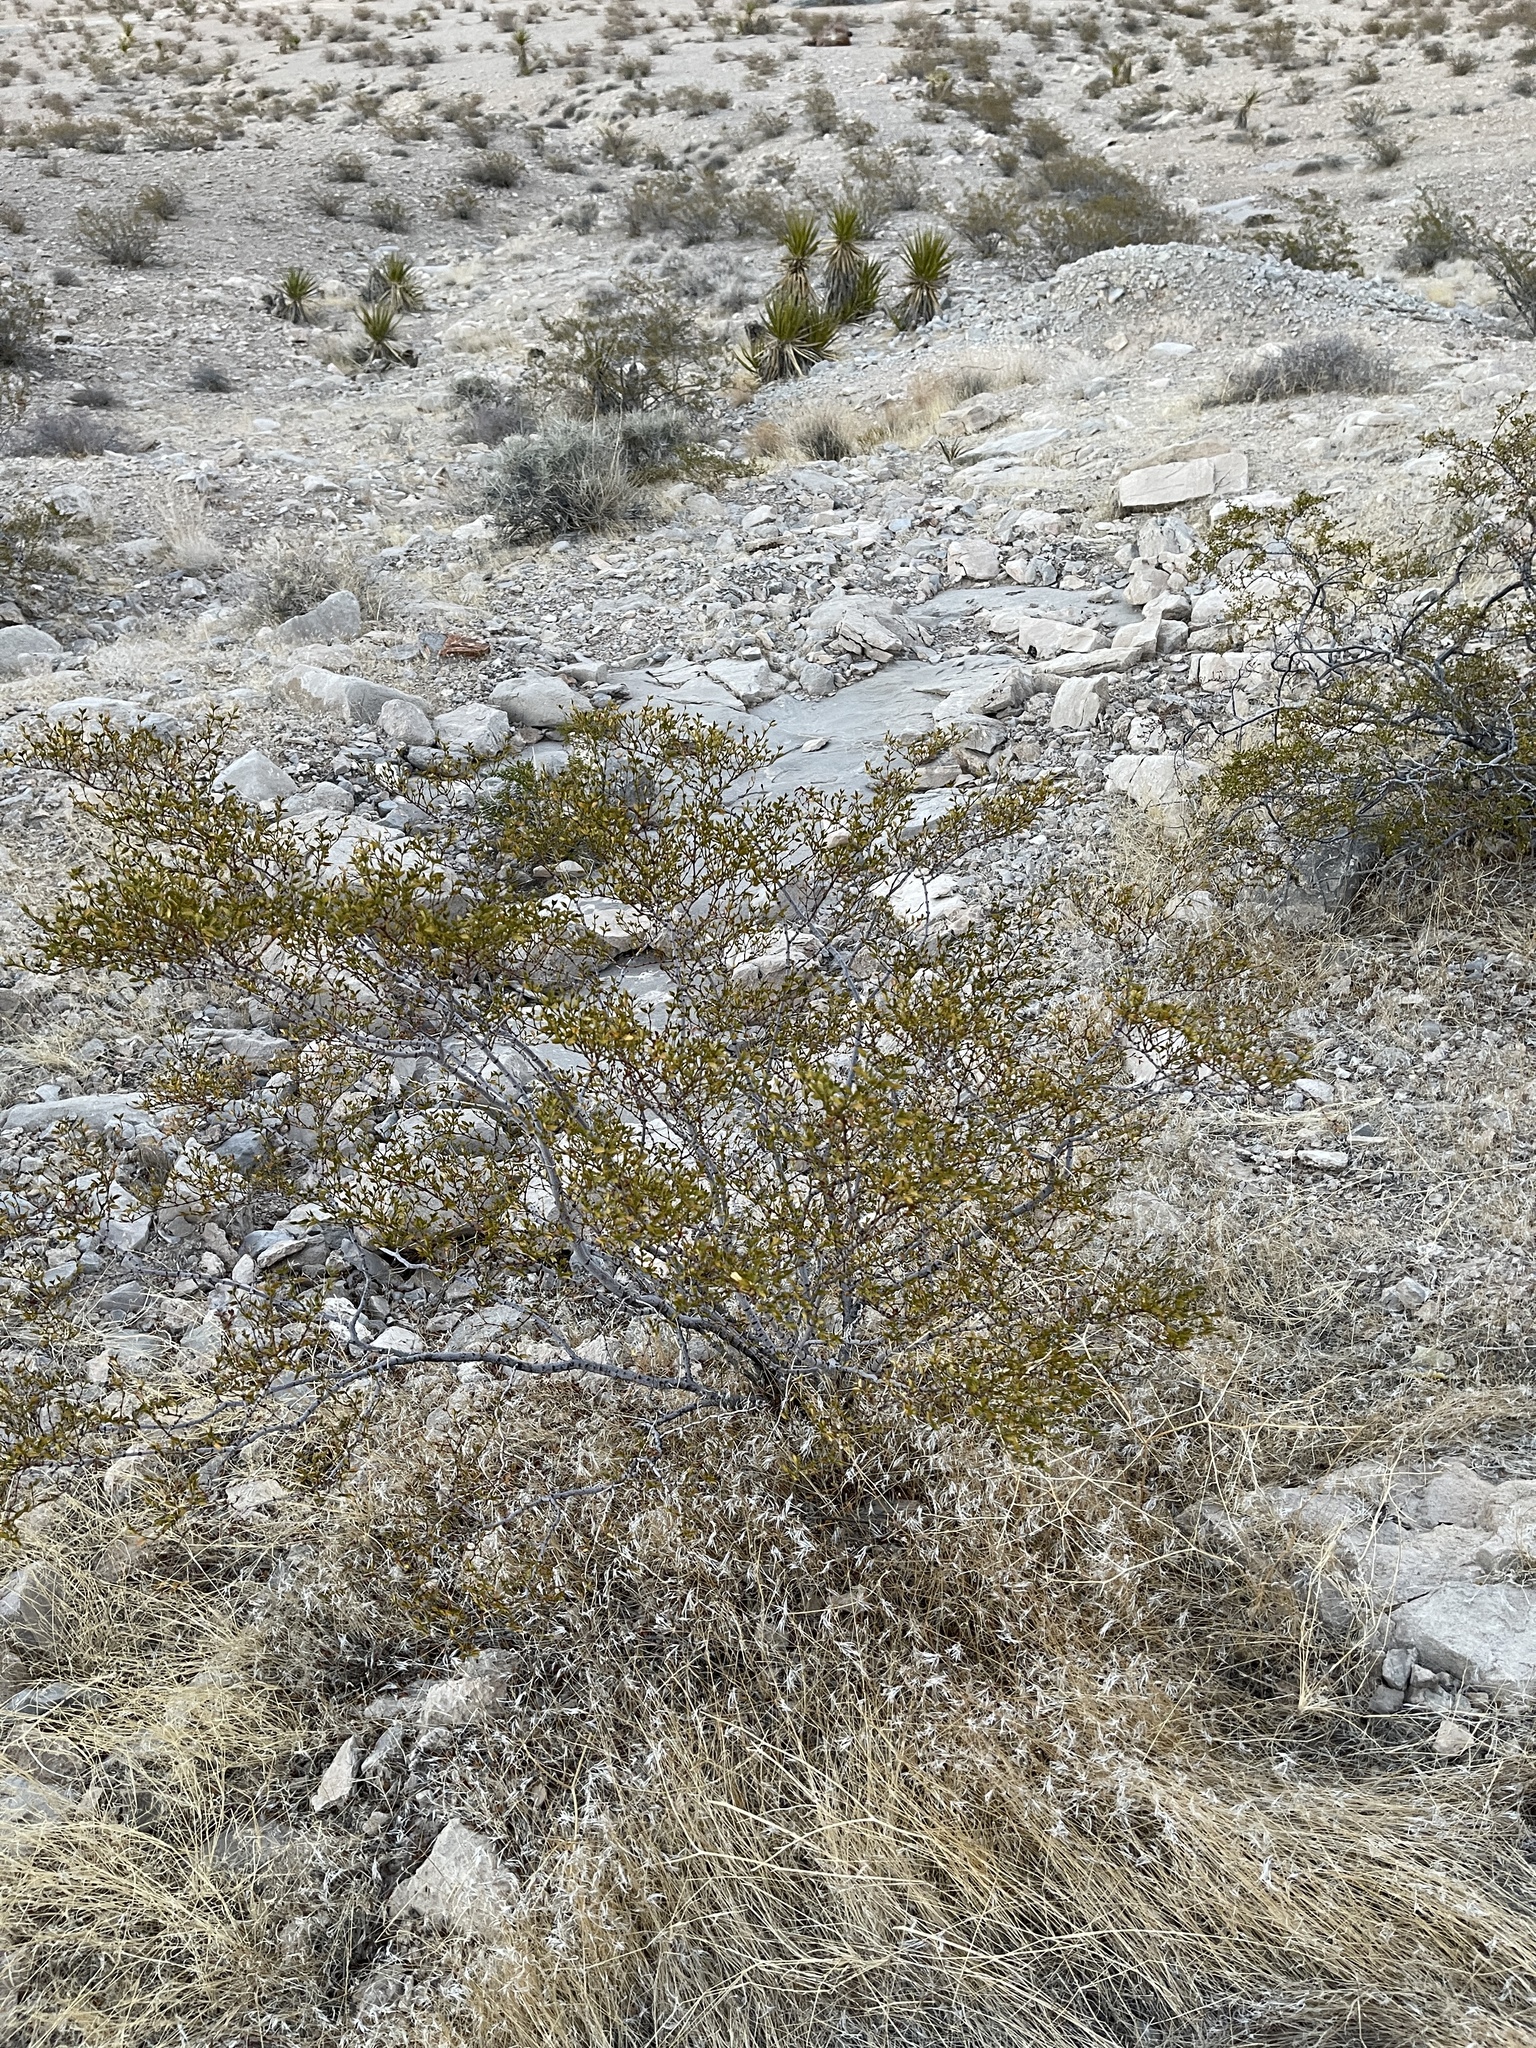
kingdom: Plantae
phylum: Tracheophyta
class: Magnoliopsida
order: Zygophyllales
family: Zygophyllaceae
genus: Larrea
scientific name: Larrea tridentata
